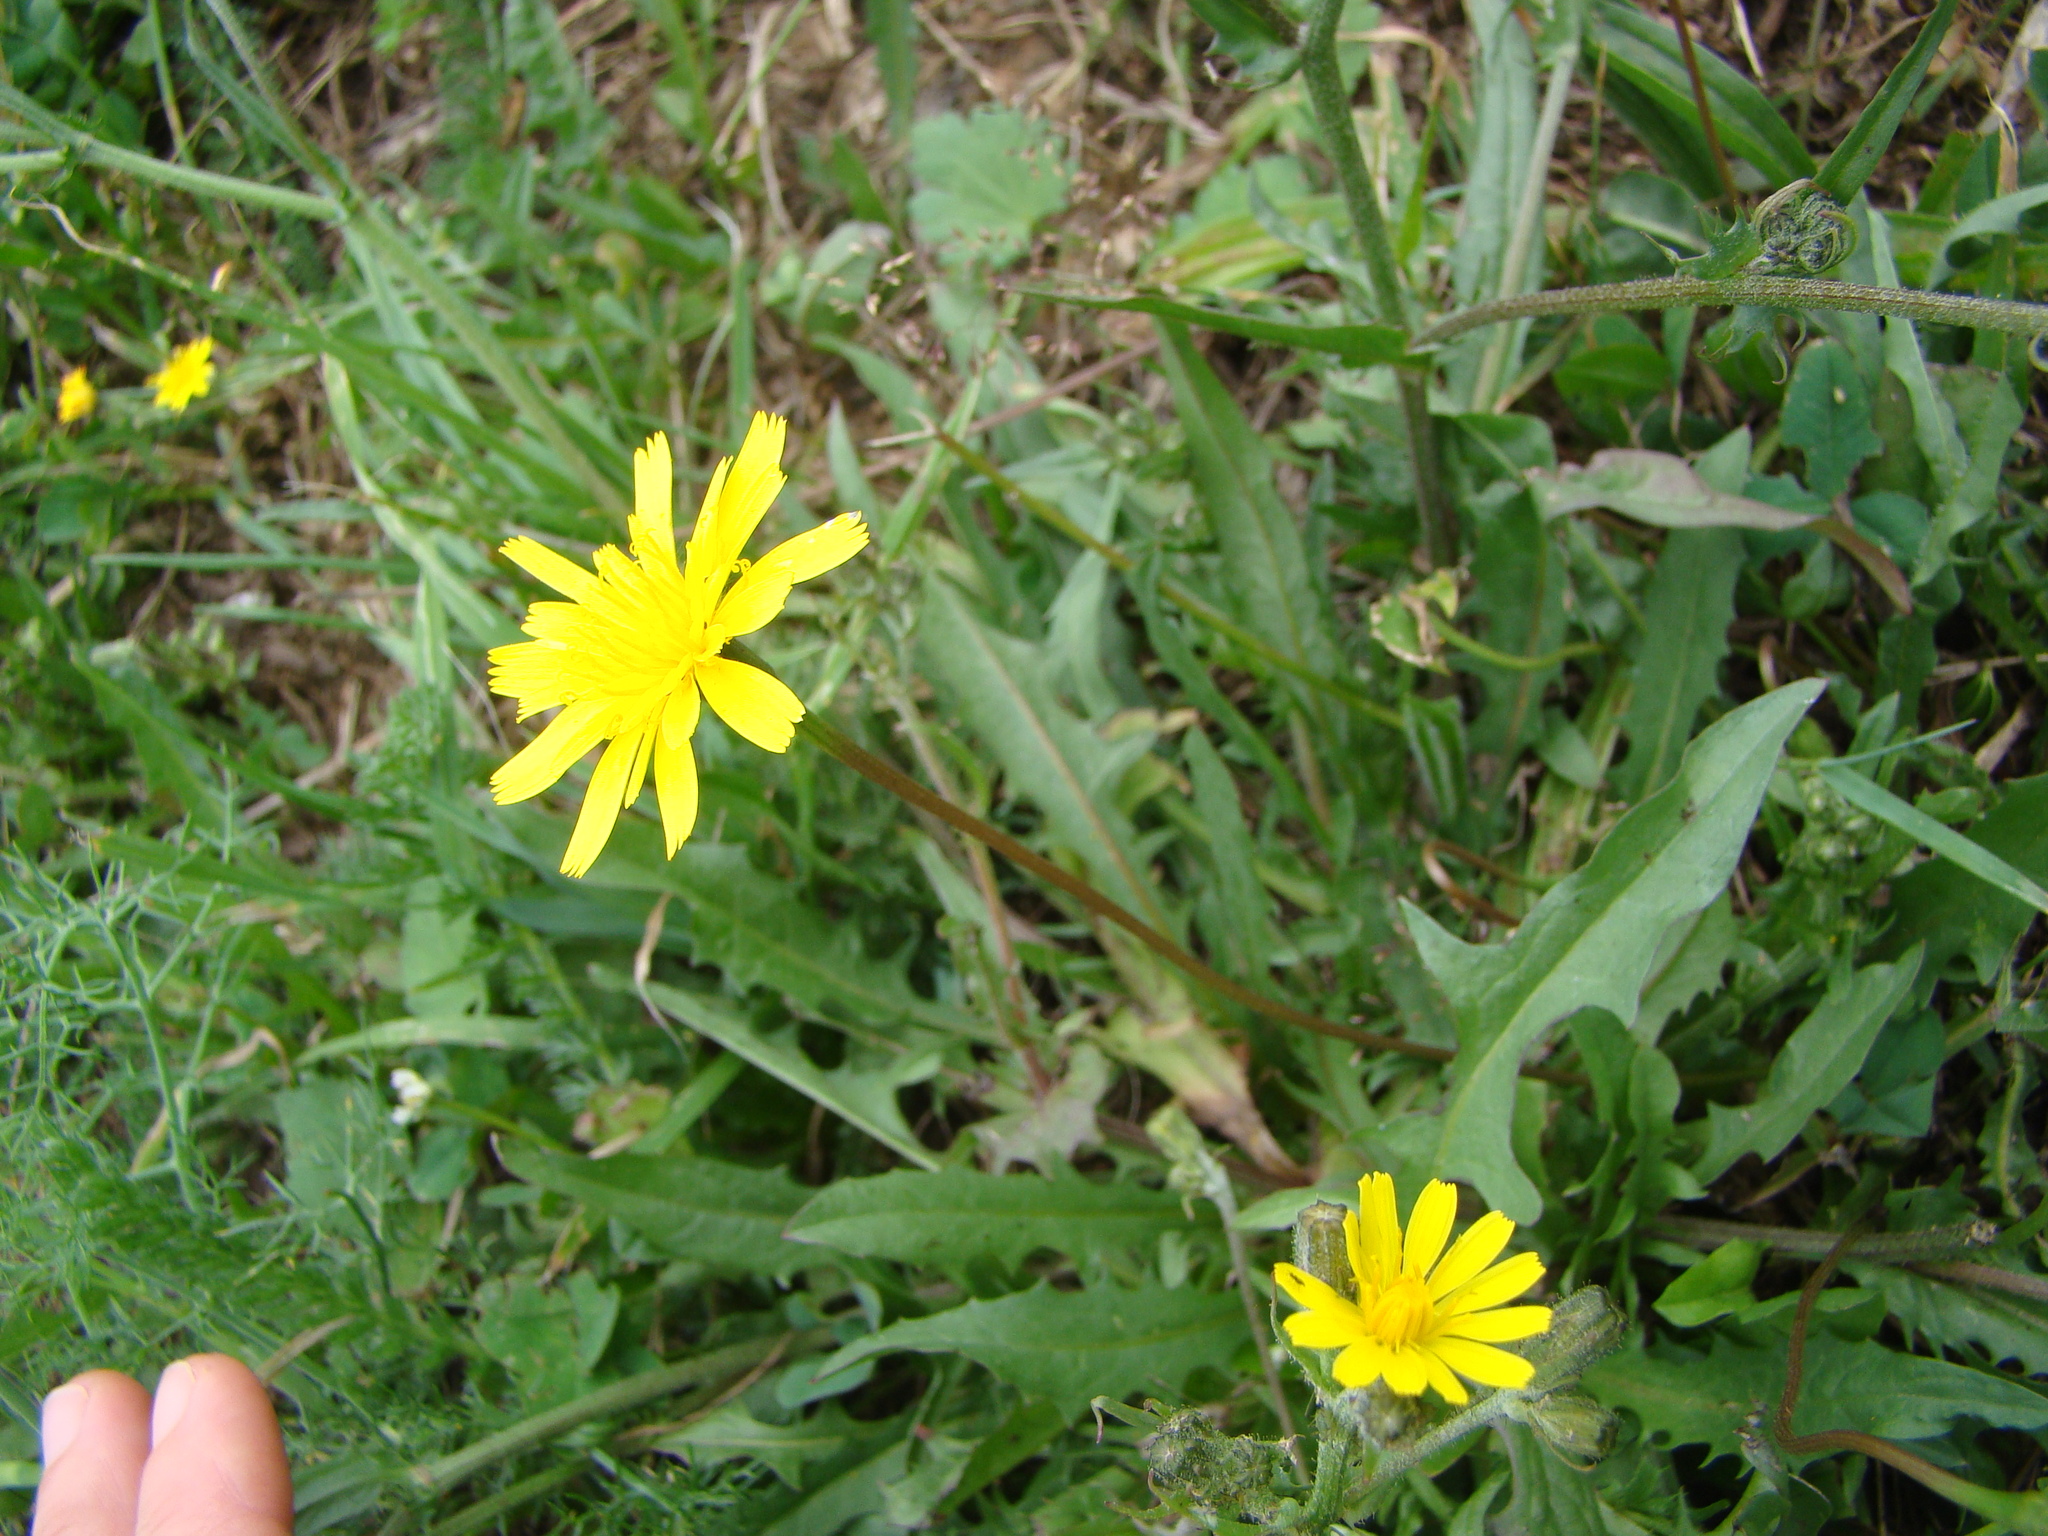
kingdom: Plantae
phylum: Tracheophyta
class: Magnoliopsida
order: Asterales
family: Asteraceae
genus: Pilosella
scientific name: Pilosella piloselloides
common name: Glaucous king-devil
